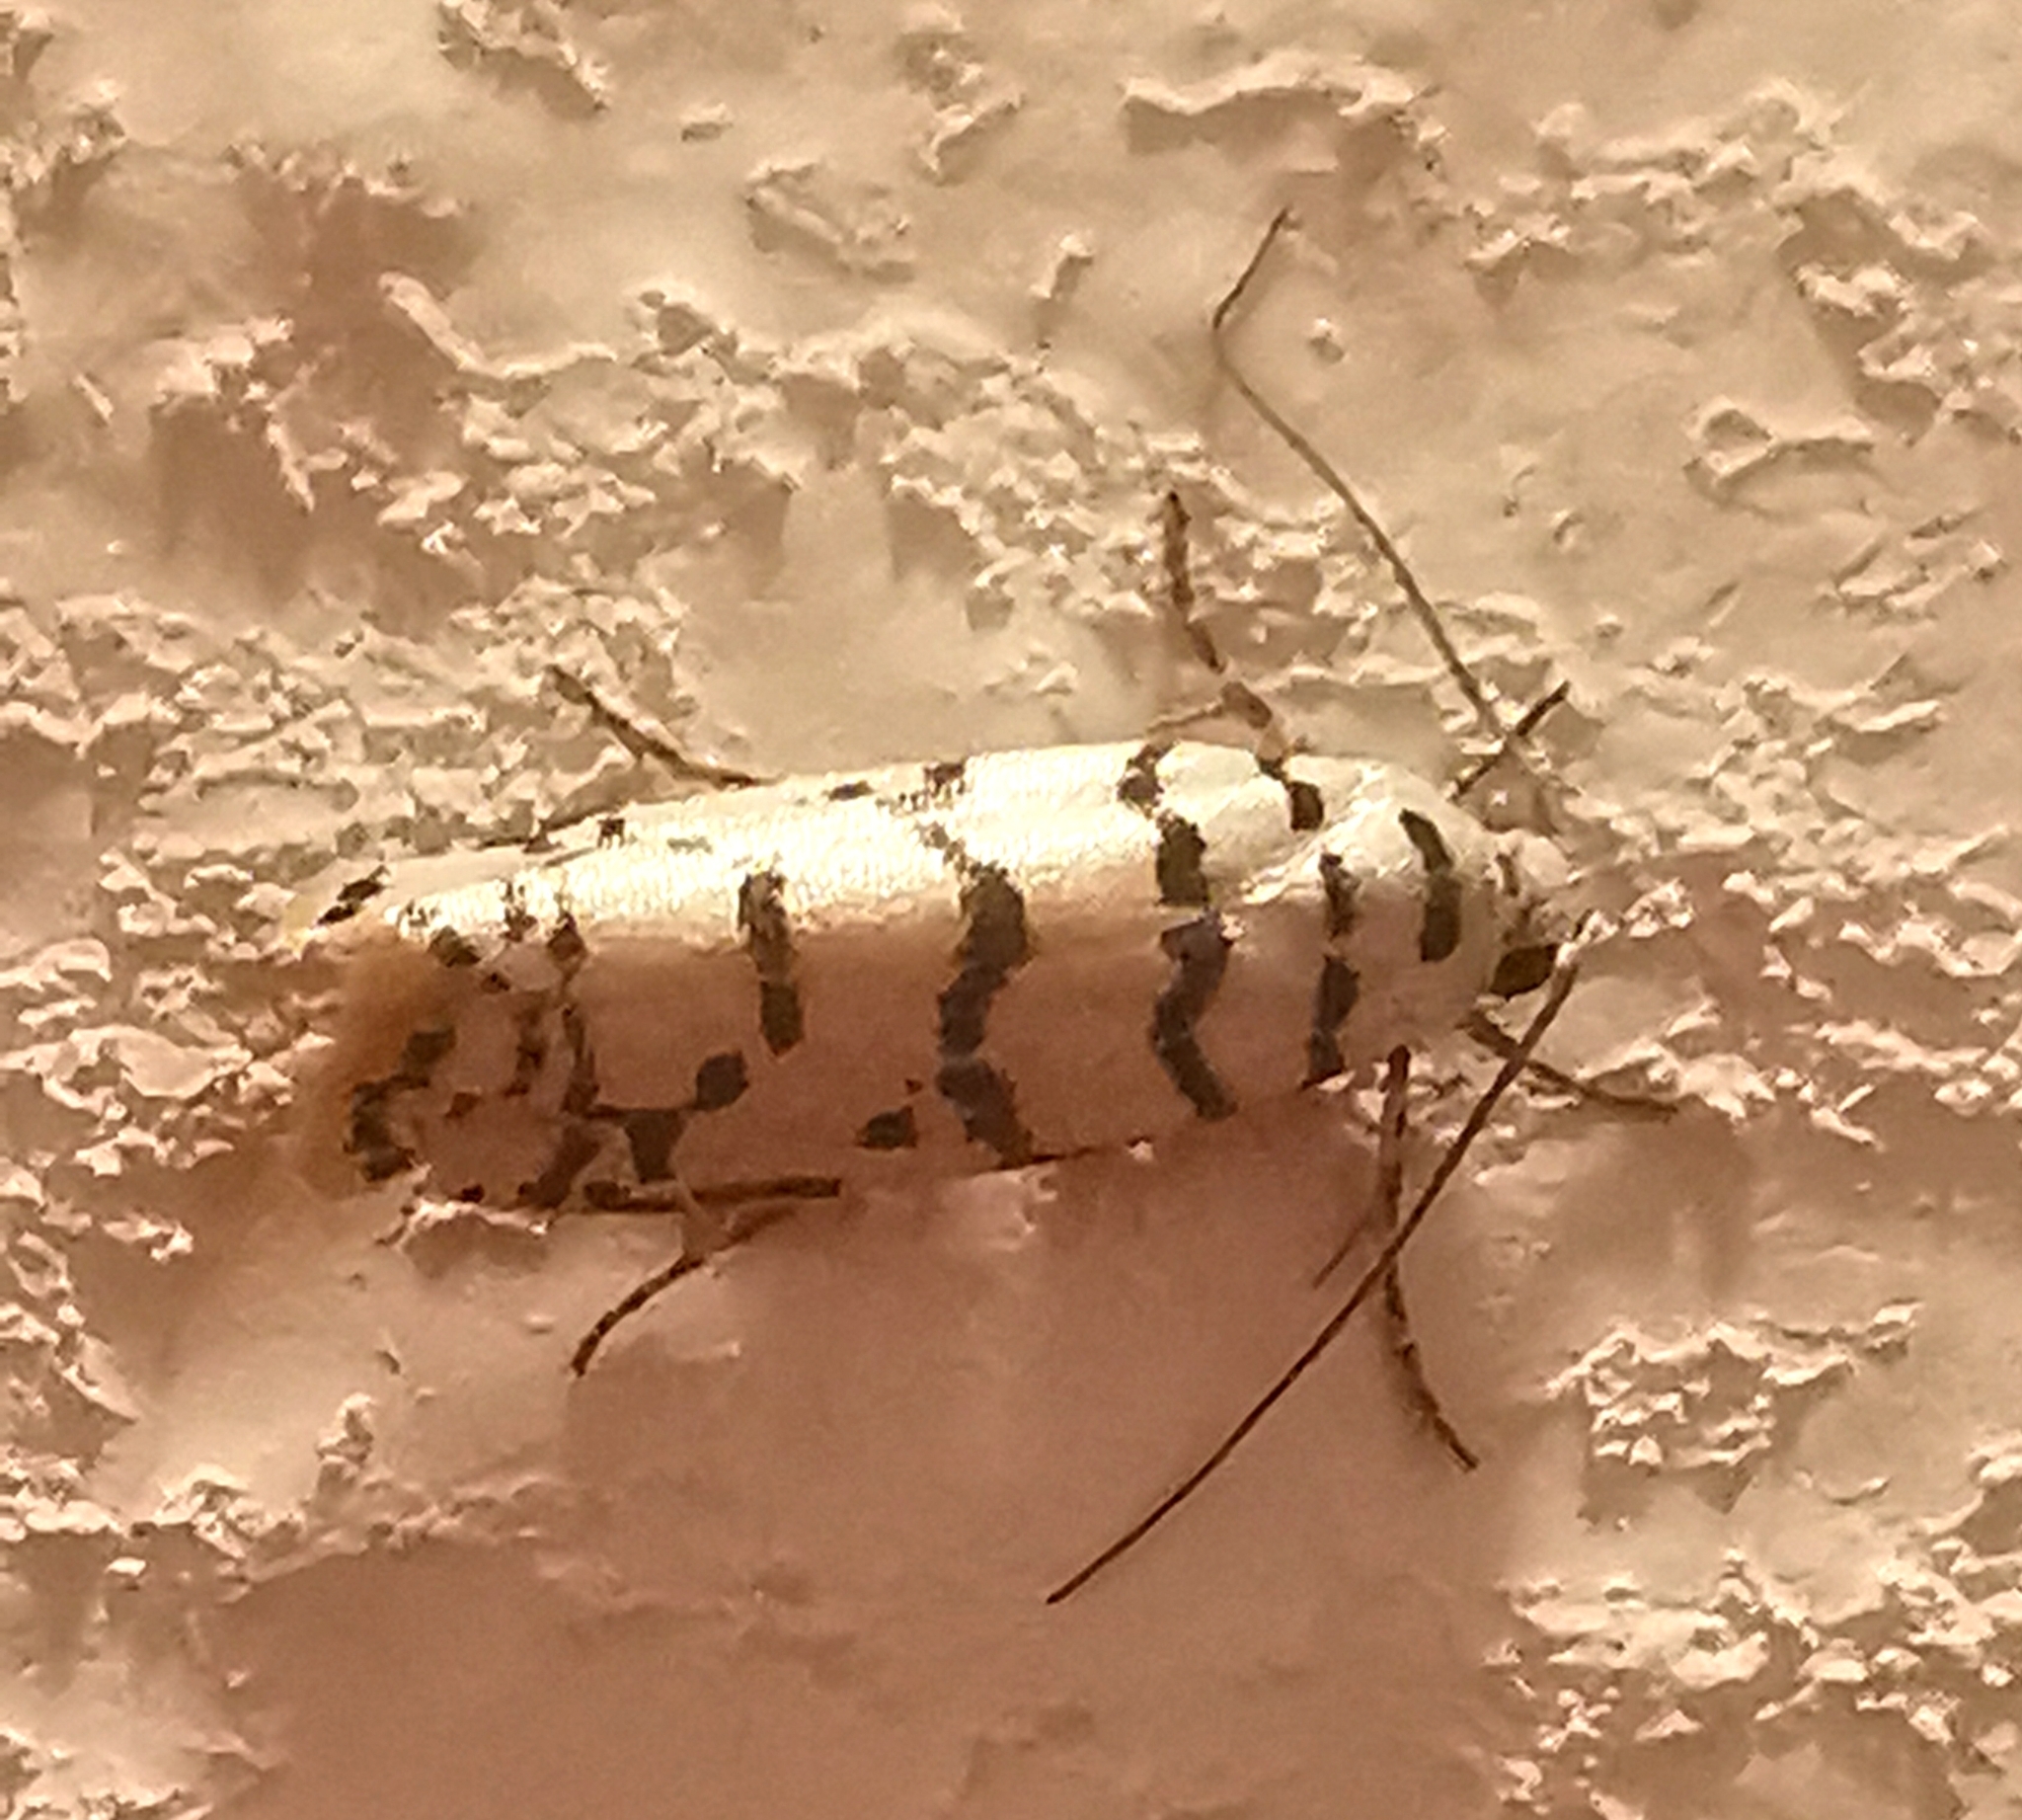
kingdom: Animalia
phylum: Arthropoda
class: Insecta
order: Lepidoptera
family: Ethmiidae
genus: Ethmia
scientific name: Ethmia delliella
